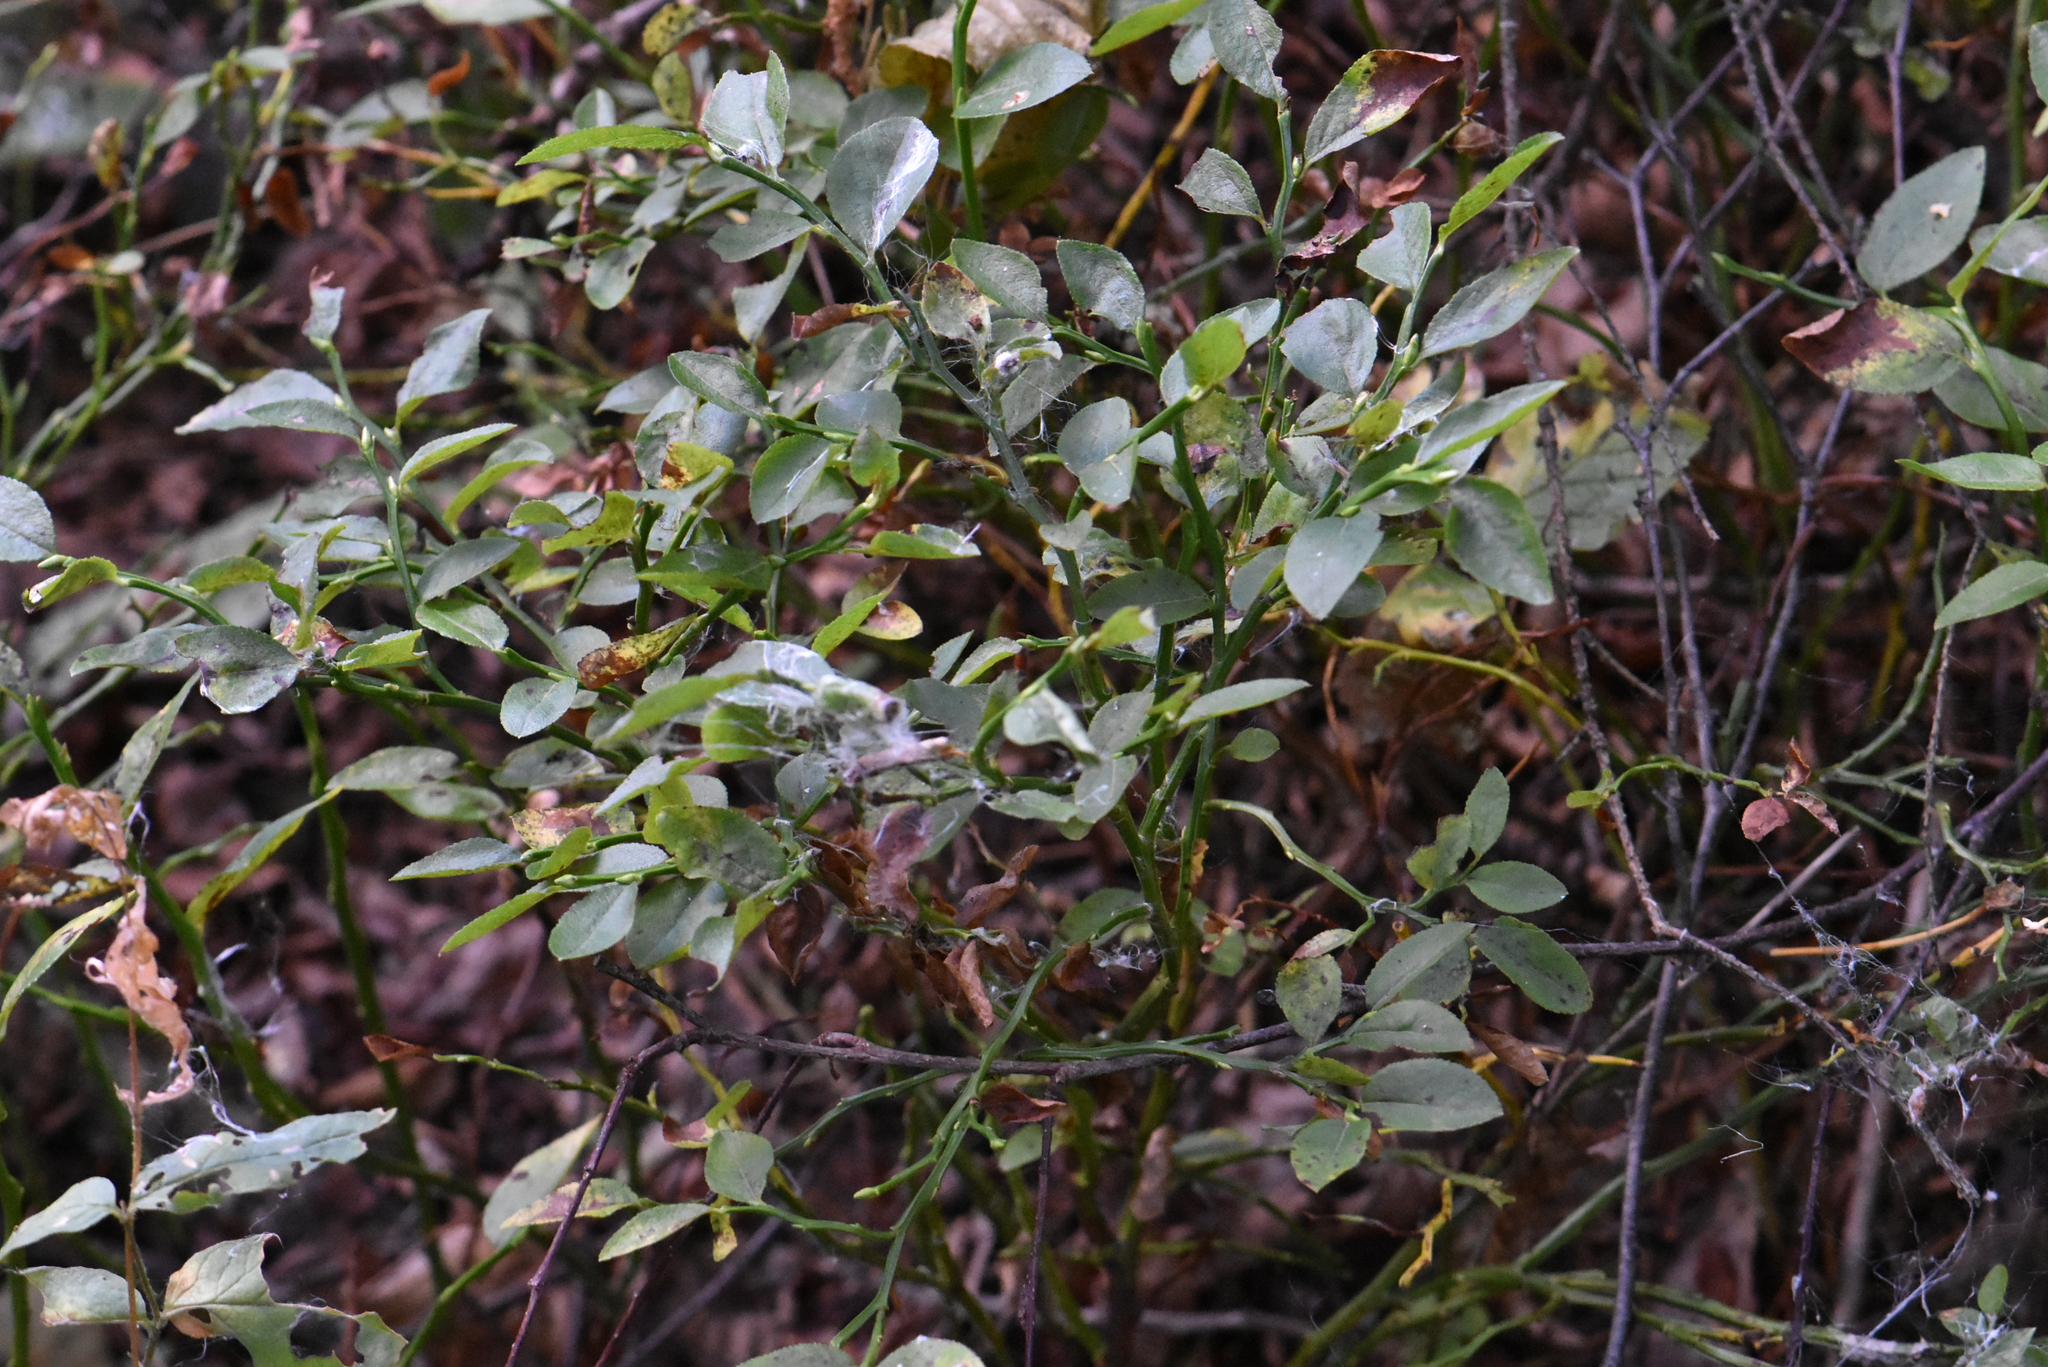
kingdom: Plantae
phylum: Tracheophyta
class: Magnoliopsida
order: Ericales
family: Ericaceae
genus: Vaccinium
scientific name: Vaccinium myrtillus
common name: Bilberry
